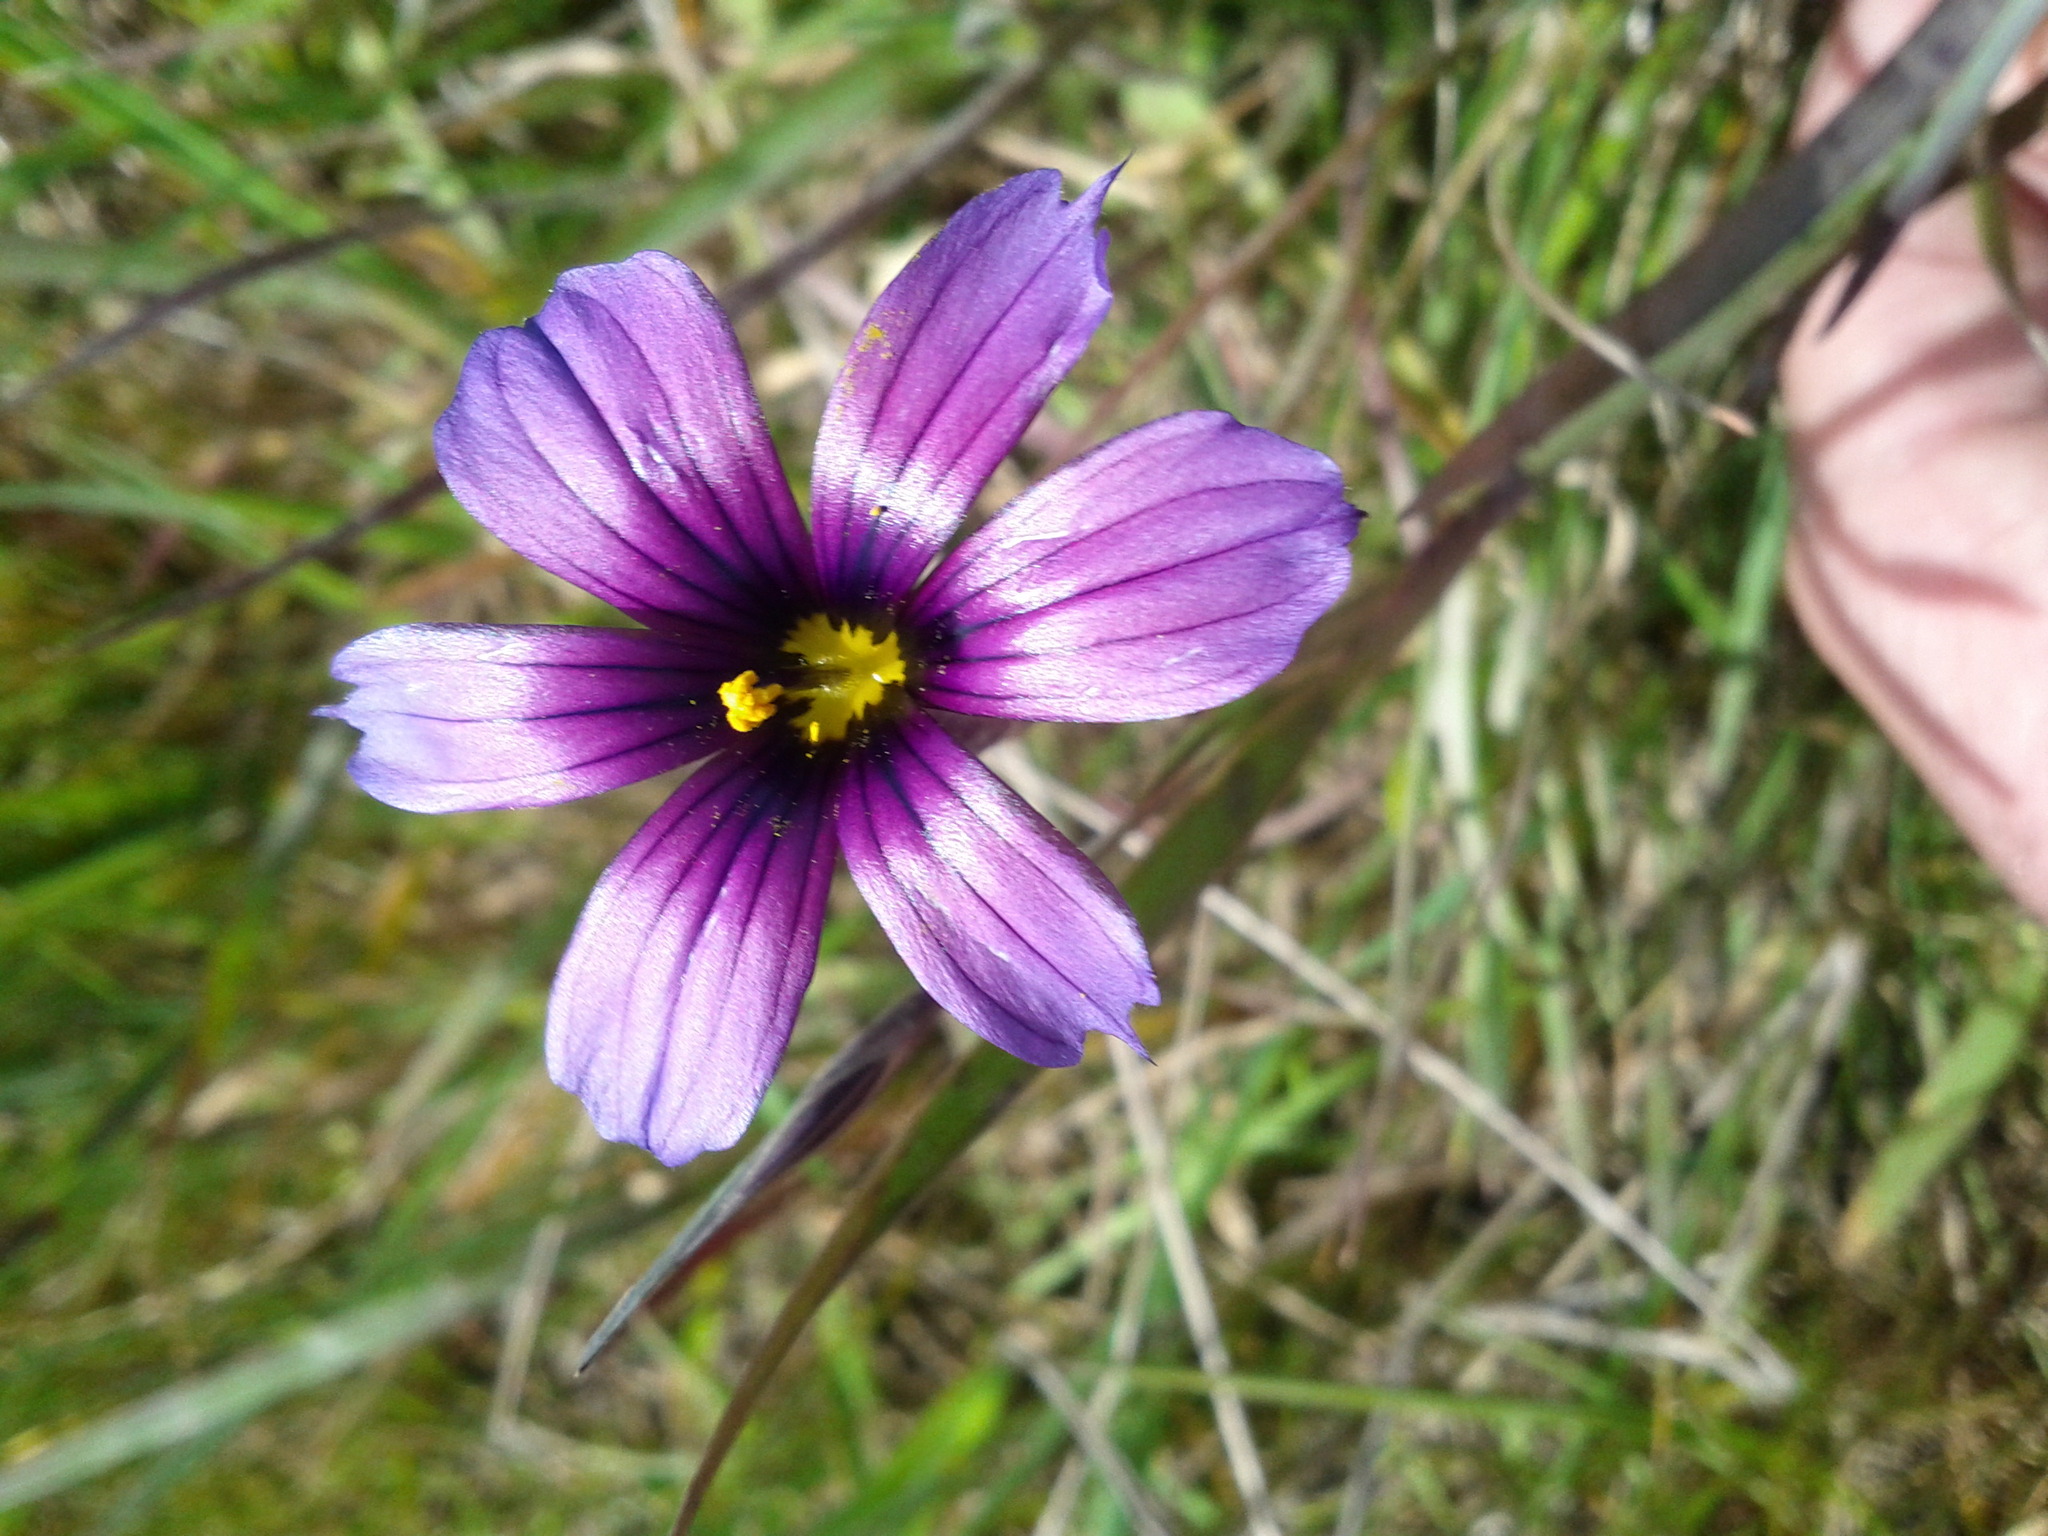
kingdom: Plantae
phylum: Tracheophyta
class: Liliopsida
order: Asparagales
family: Iridaceae
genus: Sisyrinchium
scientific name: Sisyrinchium bellum
